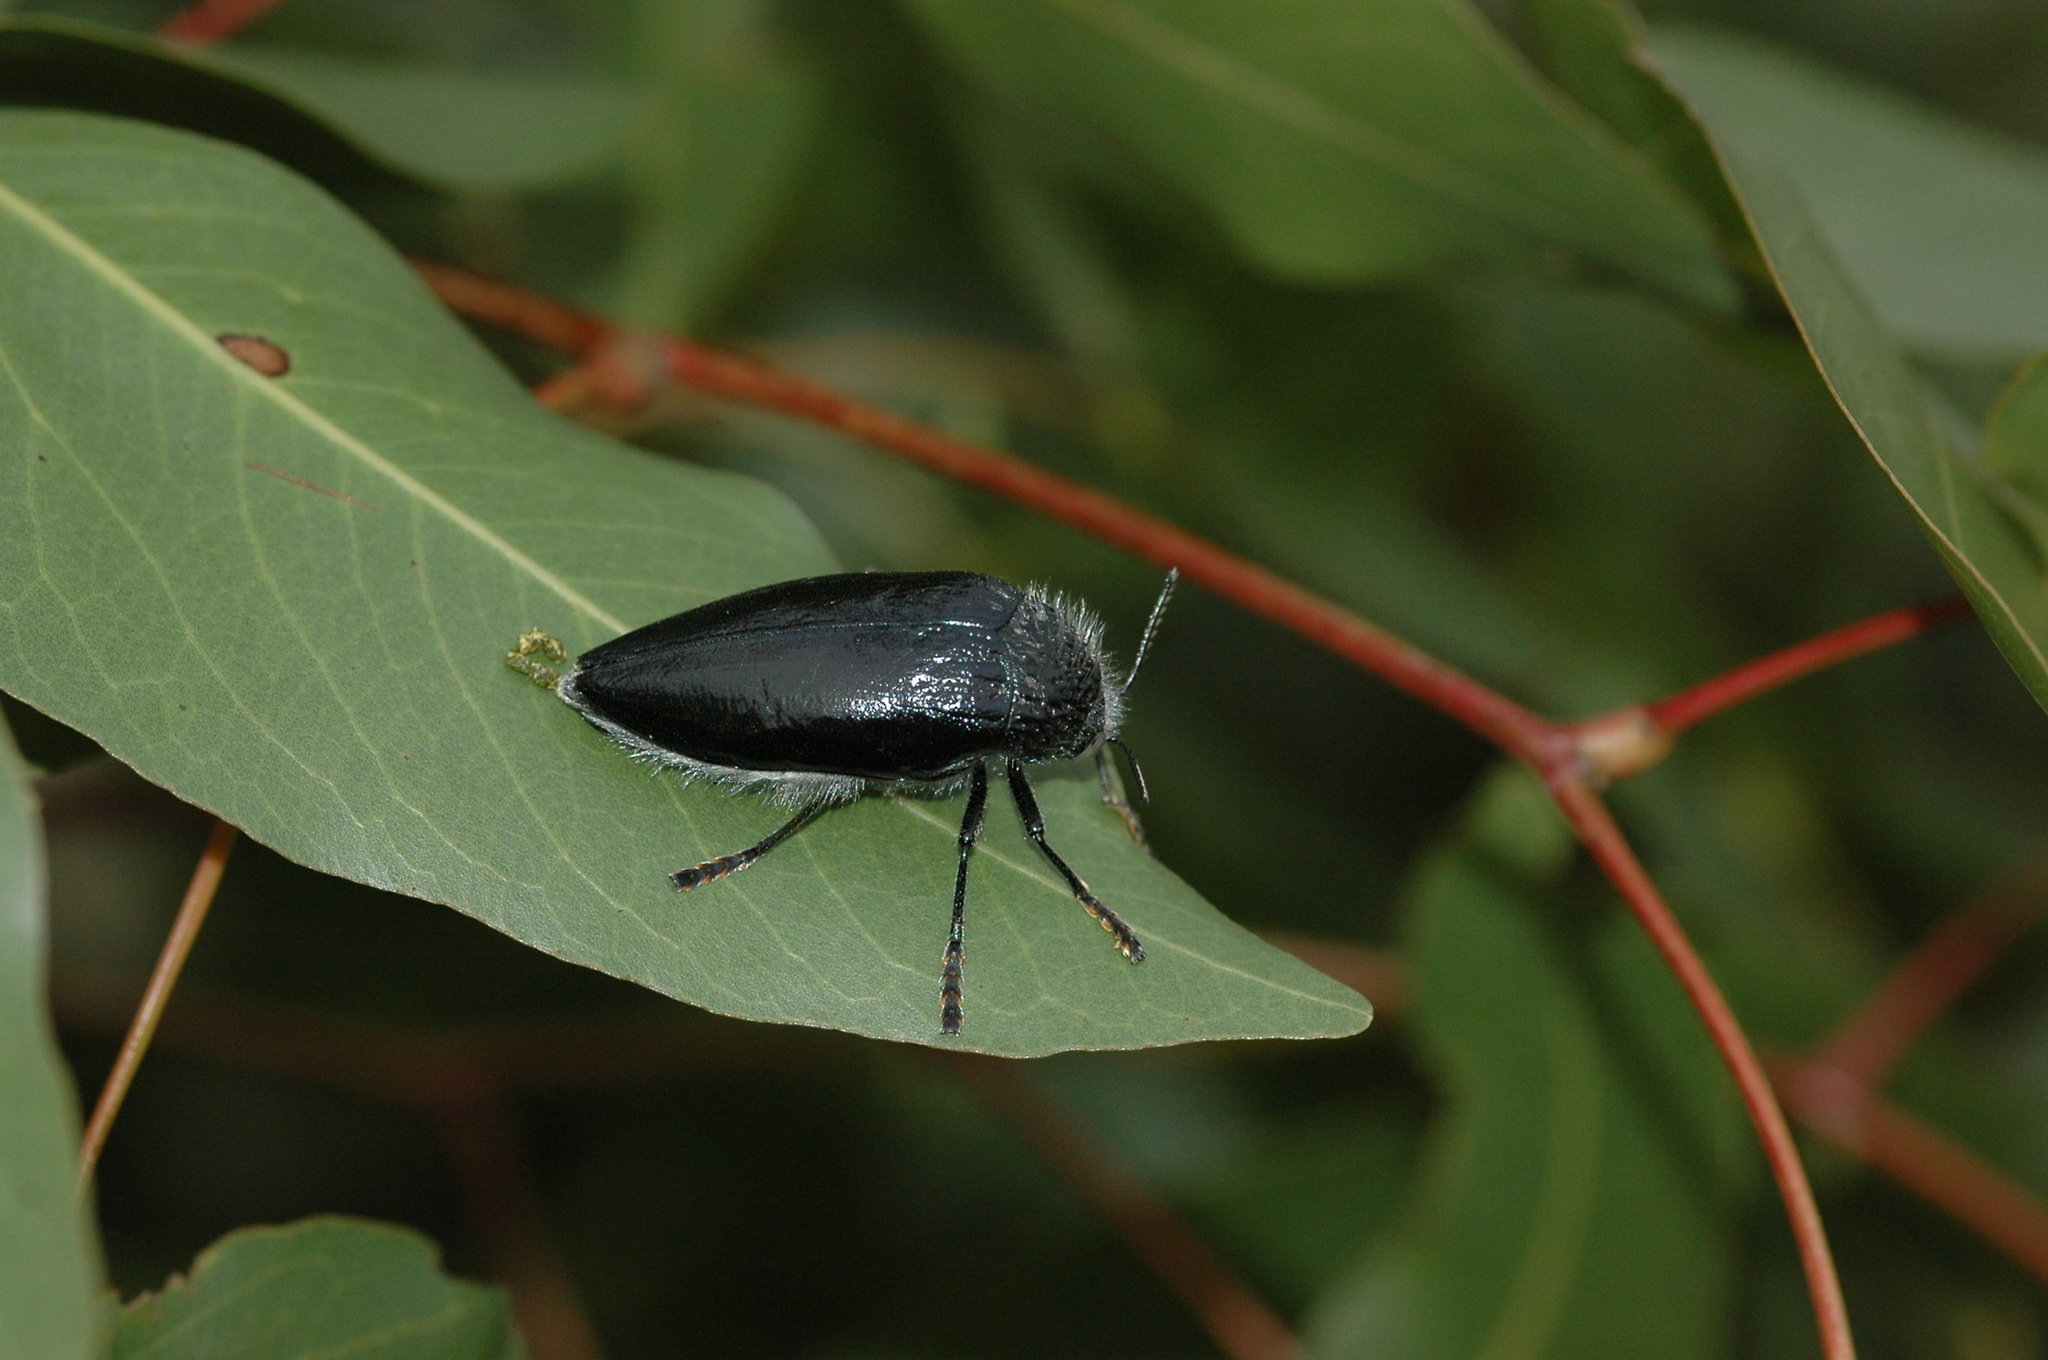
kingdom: Animalia
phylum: Arthropoda
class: Insecta
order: Coleoptera
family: Buprestidae
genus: Sternocera
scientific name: Sternocera orissa
